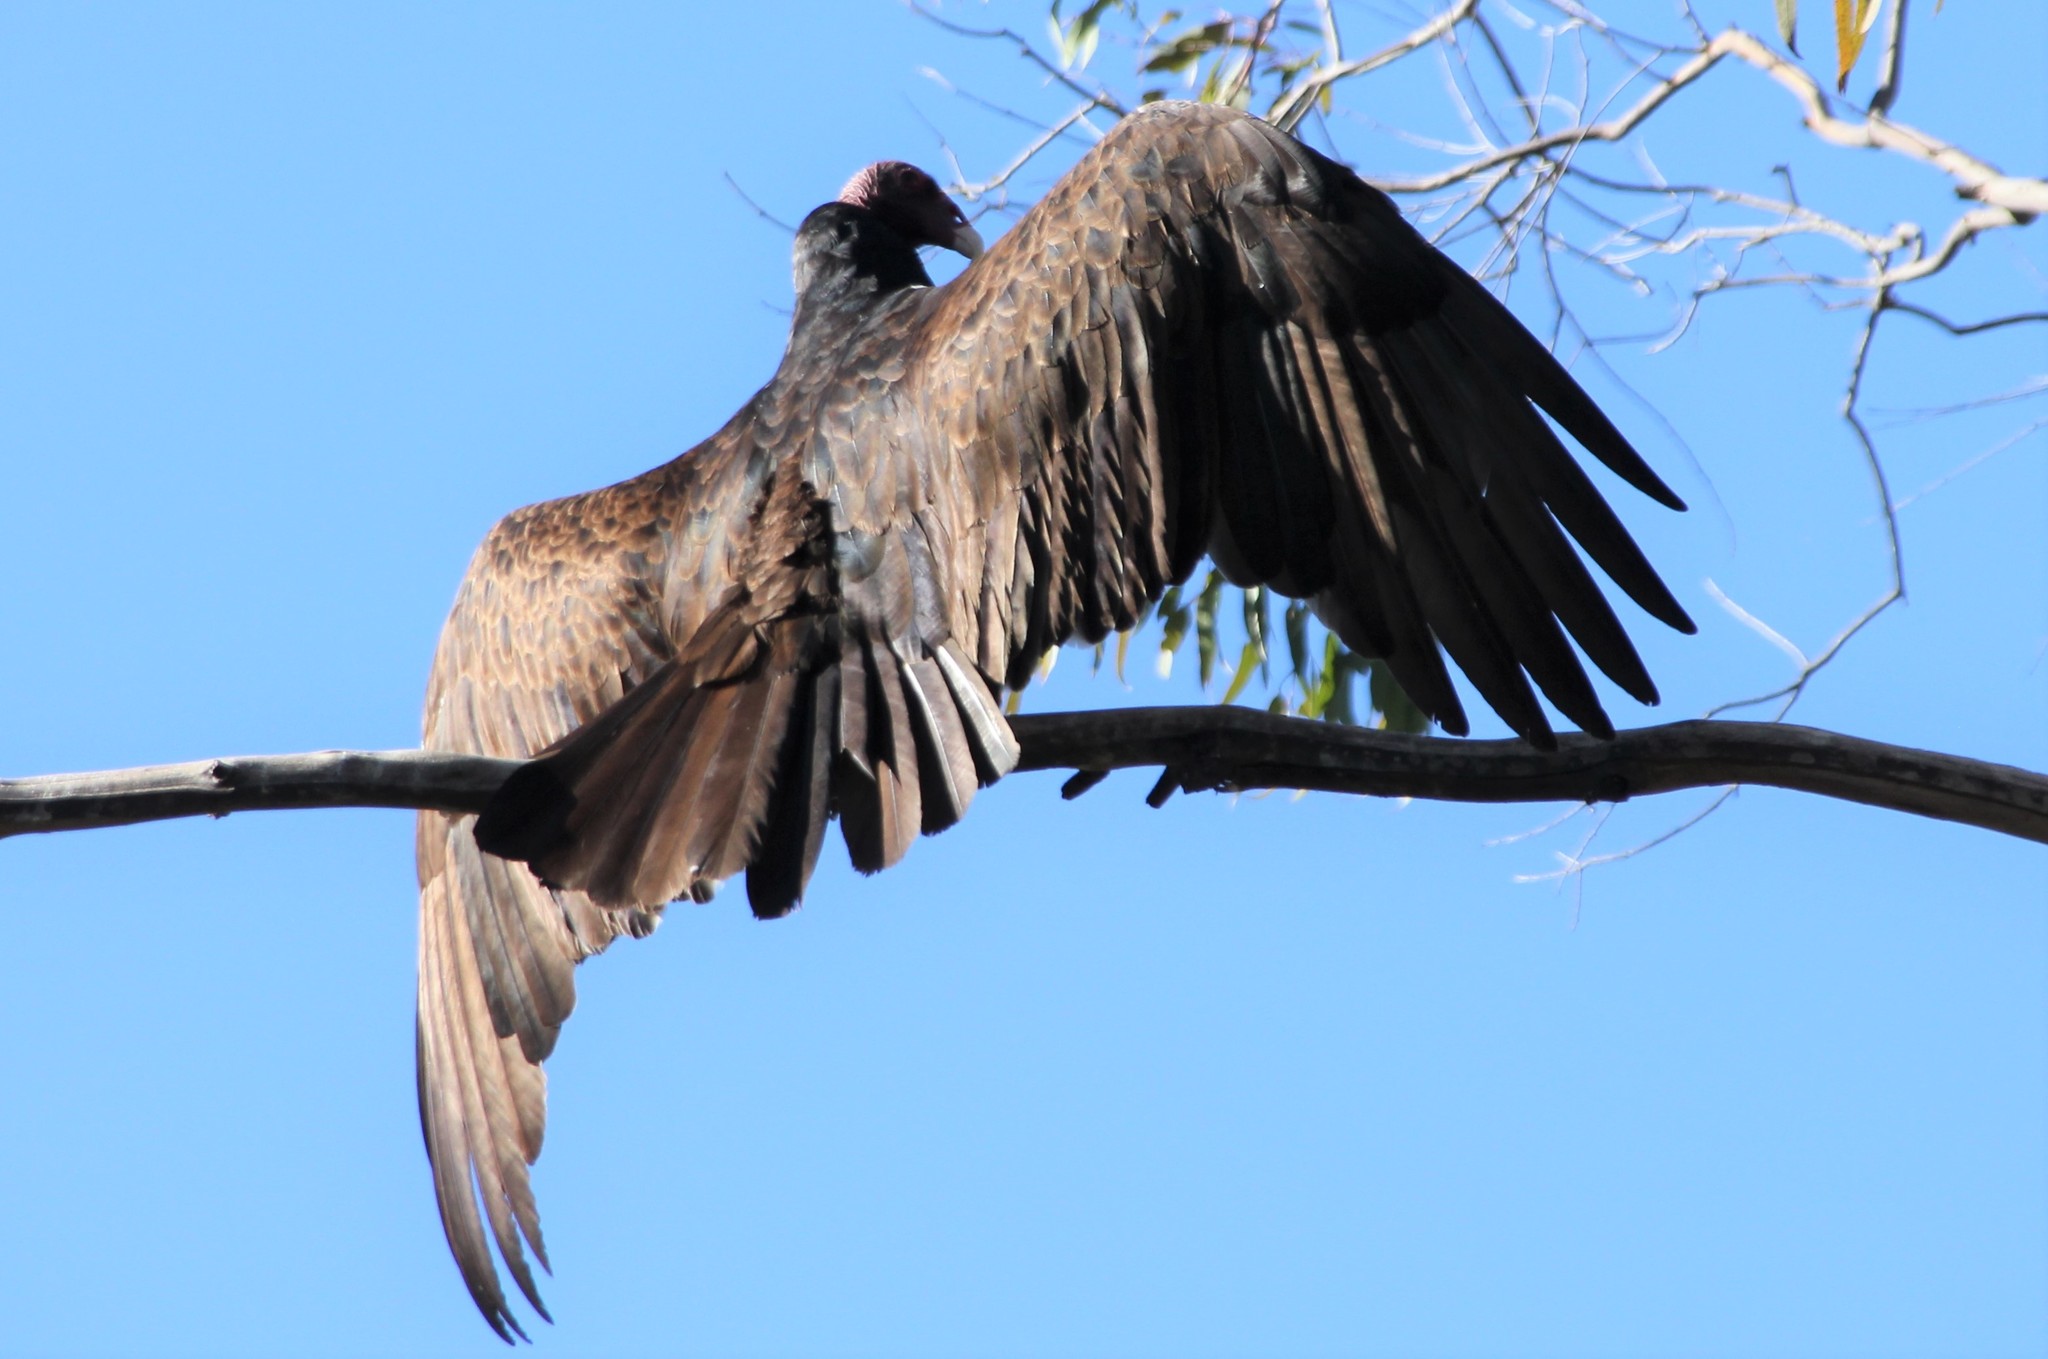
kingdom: Animalia
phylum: Chordata
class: Aves
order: Accipitriformes
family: Cathartidae
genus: Cathartes
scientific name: Cathartes aura
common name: Turkey vulture
